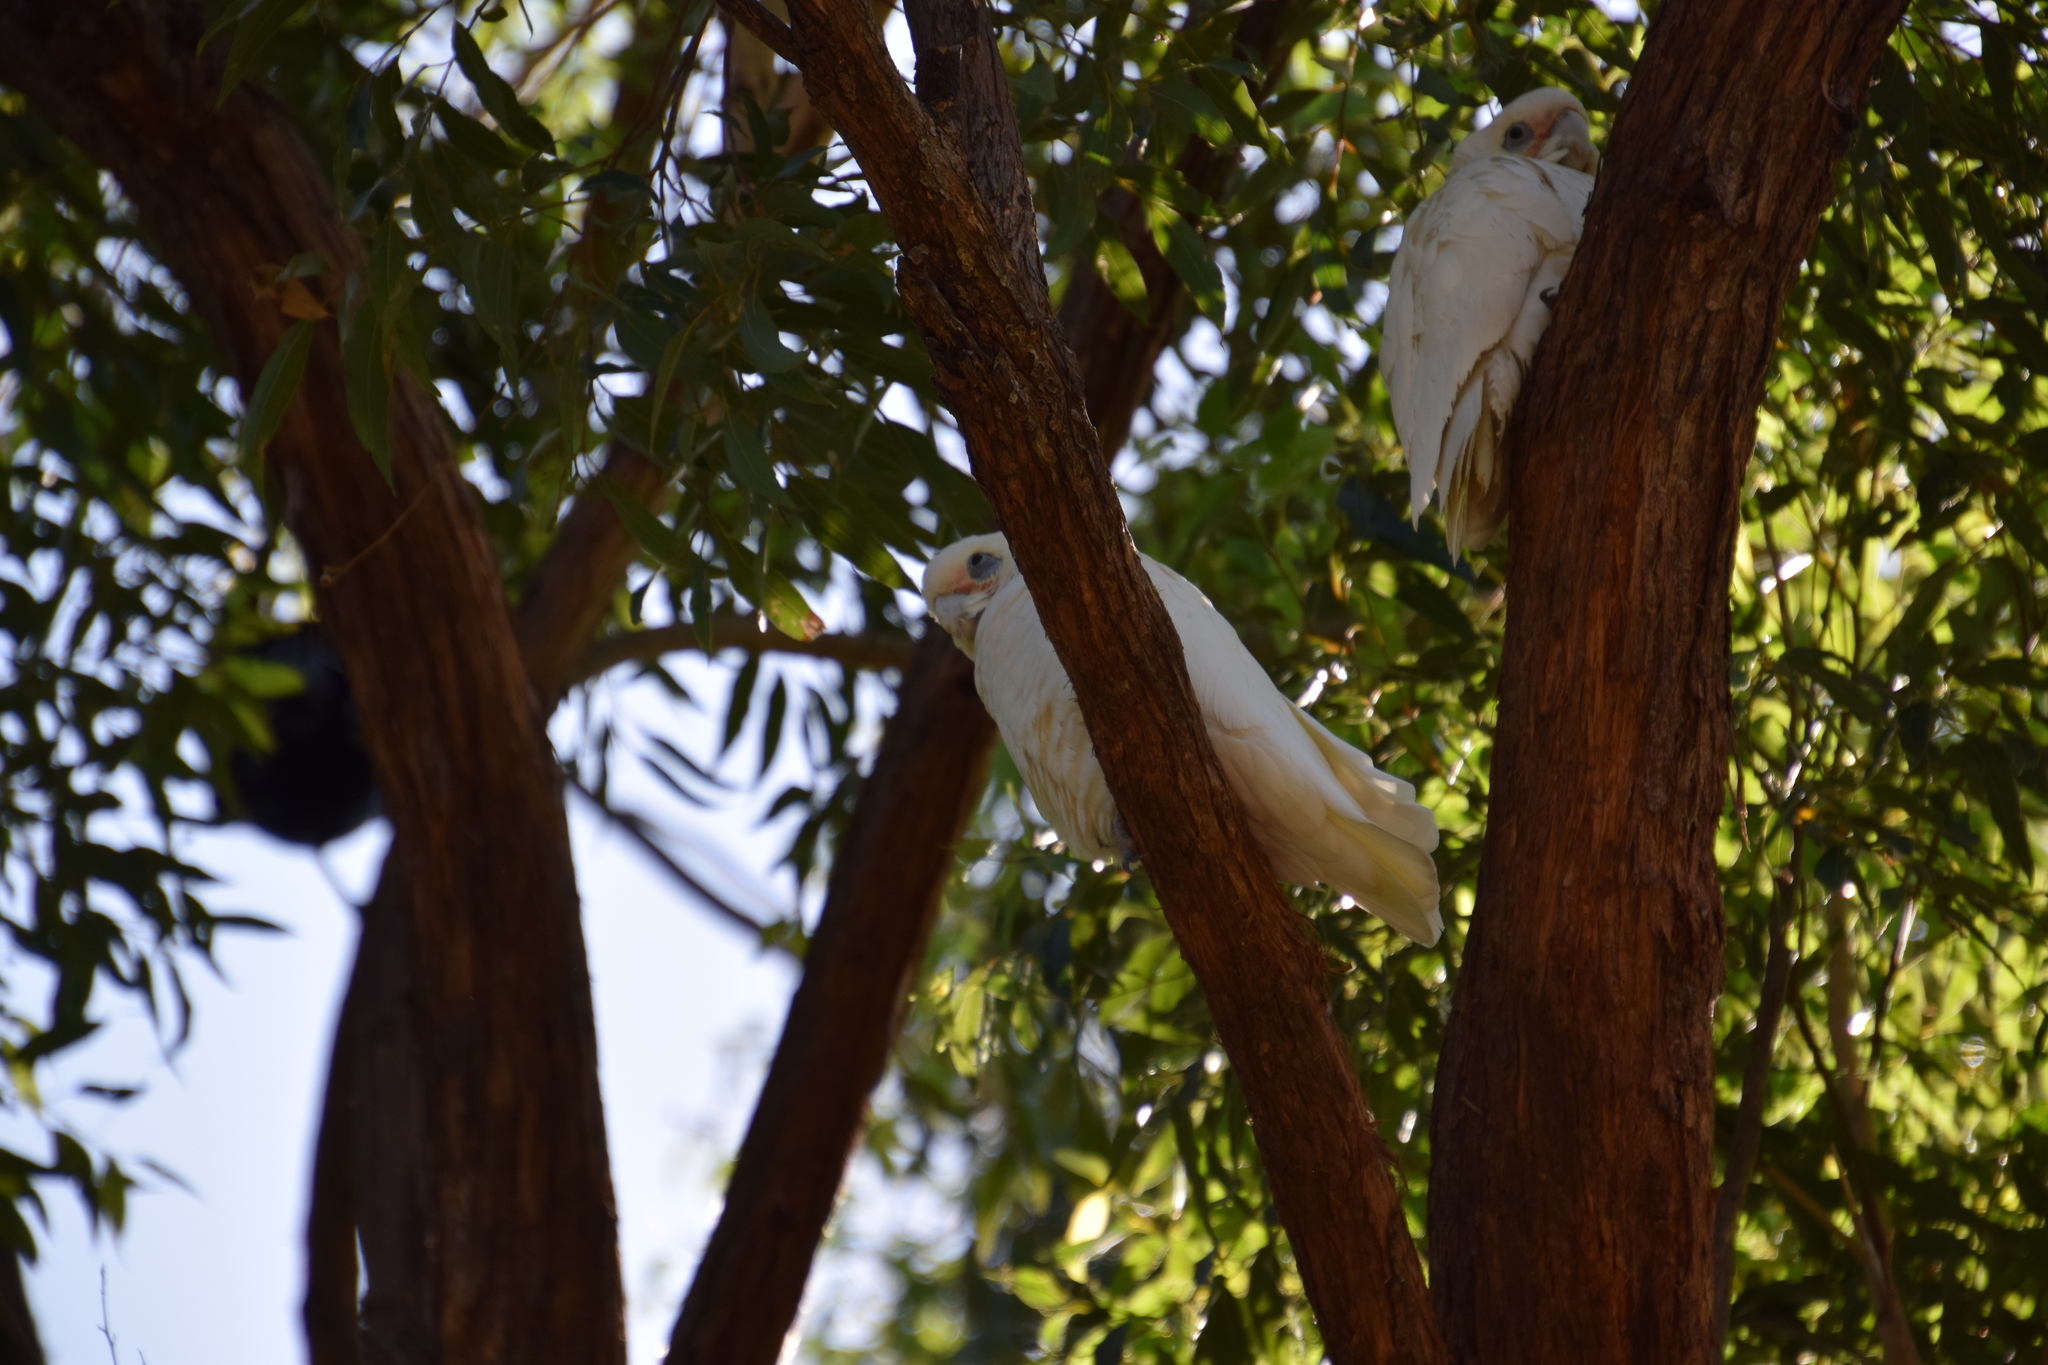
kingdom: Animalia
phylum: Chordata
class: Aves
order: Psittaciformes
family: Psittacidae
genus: Cacatua
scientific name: Cacatua sanguinea
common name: Little corella
